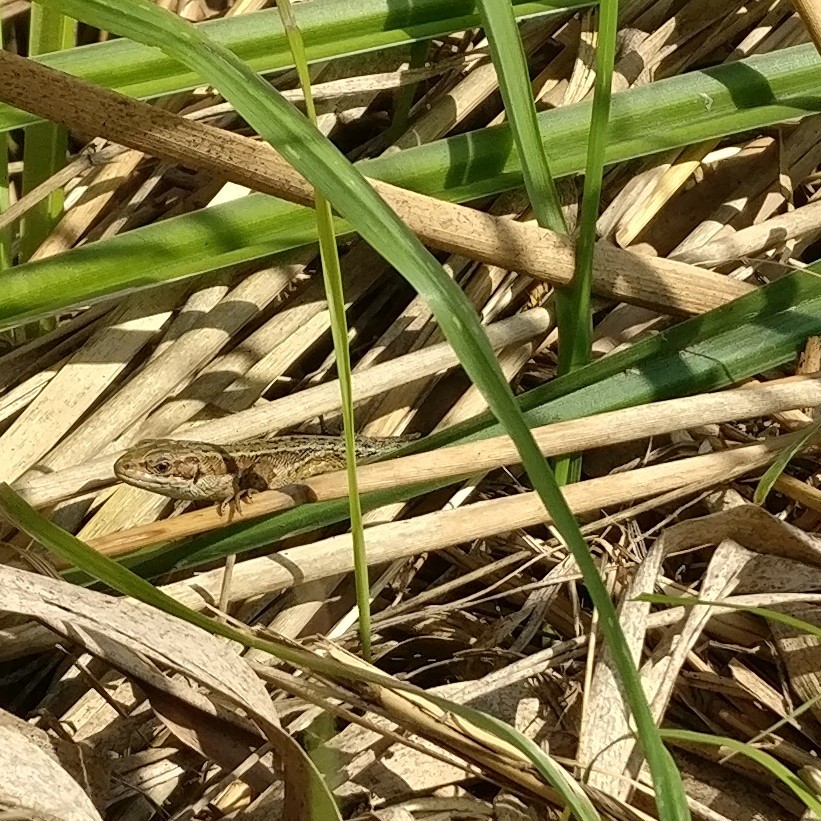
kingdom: Animalia
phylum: Chordata
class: Squamata
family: Lacertidae
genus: Zootoca
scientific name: Zootoca vivipara
